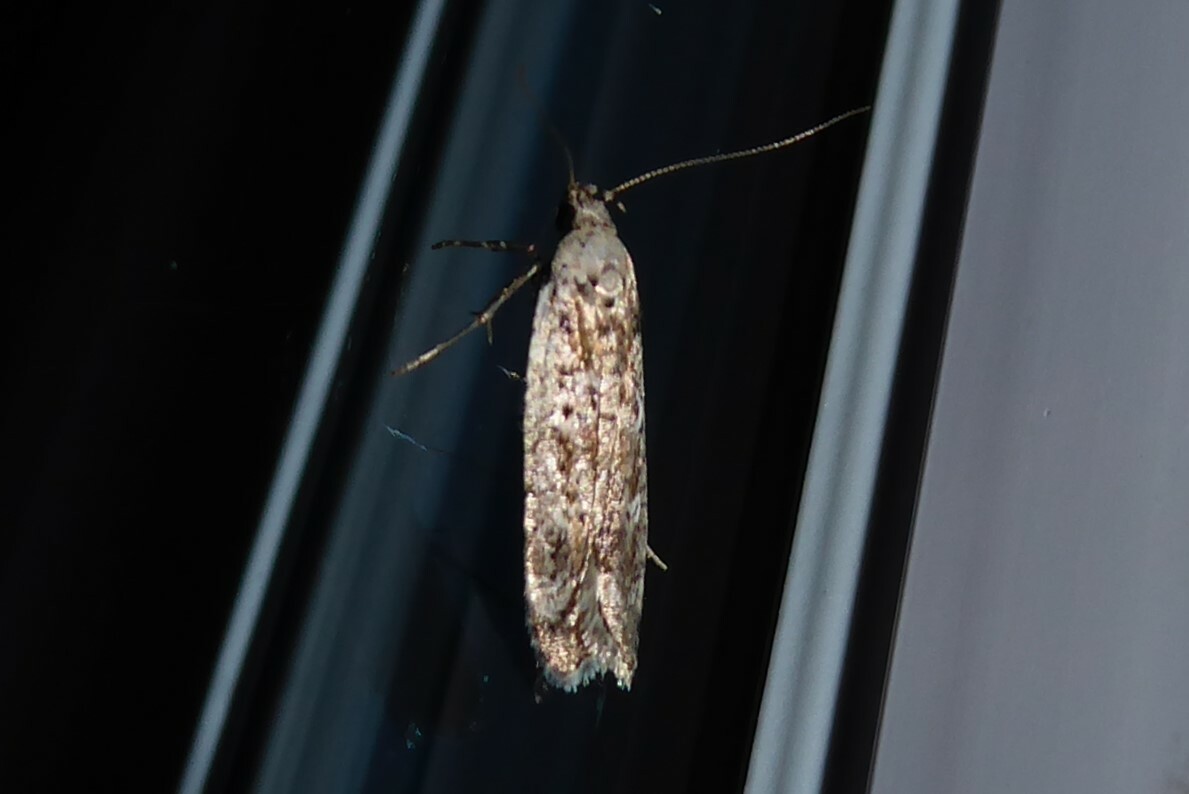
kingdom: Animalia
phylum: Arthropoda
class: Insecta
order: Lepidoptera
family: Gelechiidae
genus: Anisoplaca
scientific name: Anisoplaca achyrota
